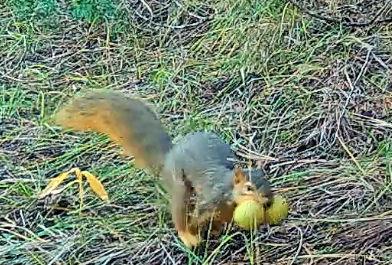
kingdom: Animalia
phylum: Chordata
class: Mammalia
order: Rodentia
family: Sciuridae
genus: Sciurus
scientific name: Sciurus niger
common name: Fox squirrel
